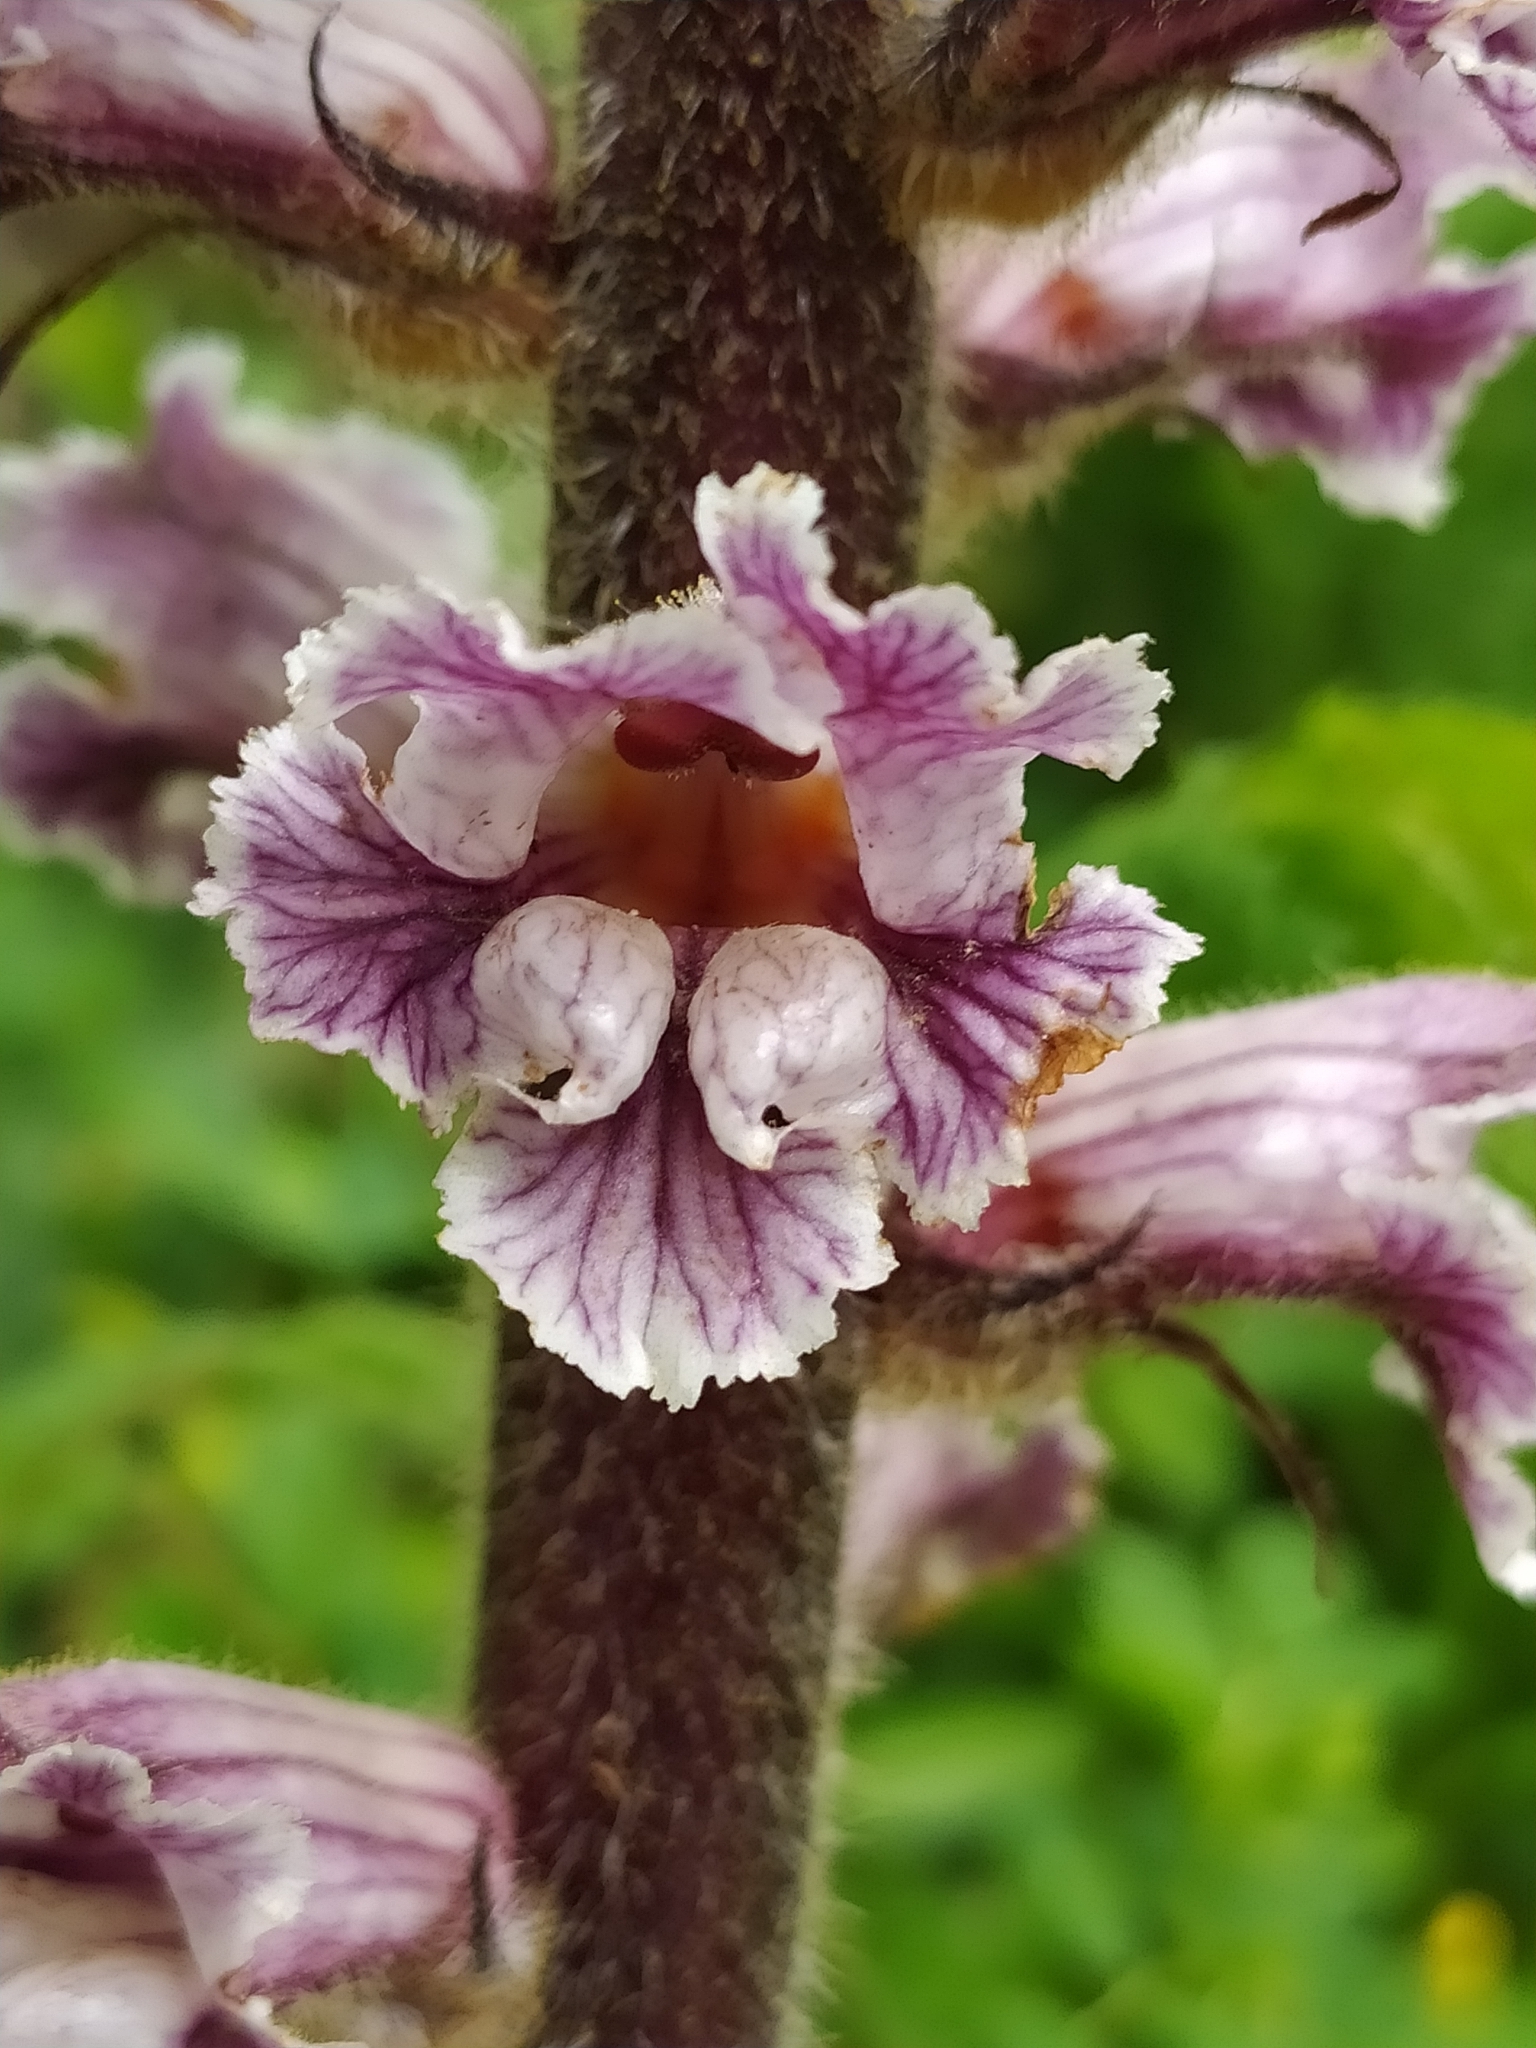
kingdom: Plantae
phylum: Tracheophyta
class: Magnoliopsida
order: Lamiales
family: Orobanchaceae
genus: Orobanche
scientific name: Orobanche crenata
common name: Bean broomrape
